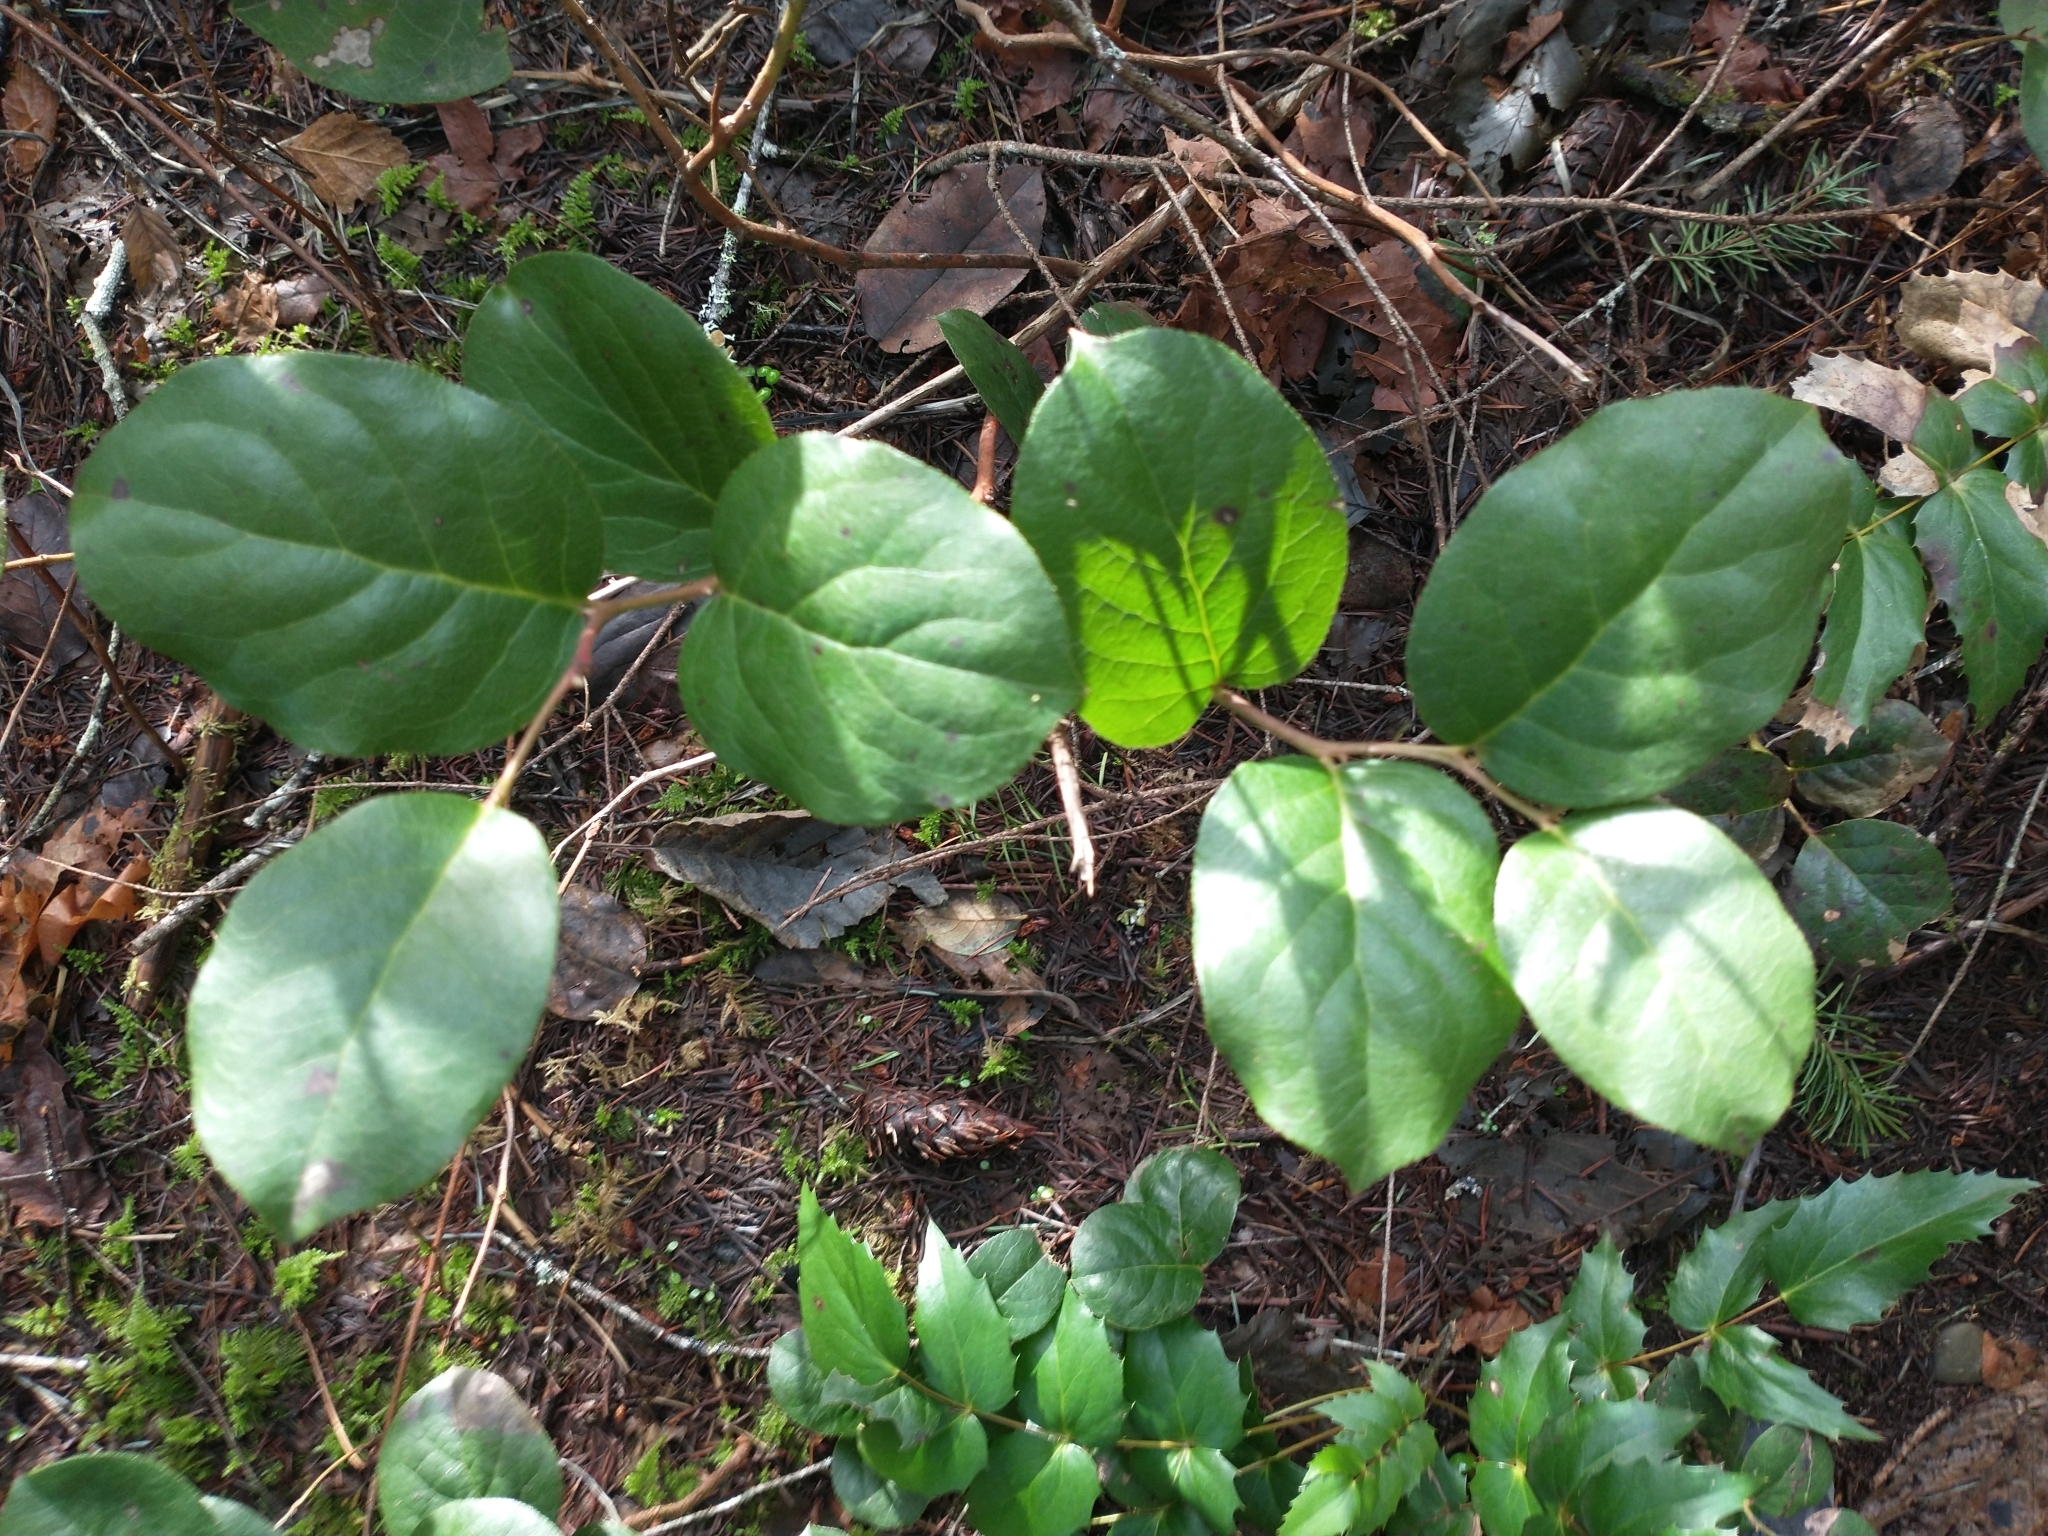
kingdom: Plantae
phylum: Tracheophyta
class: Magnoliopsida
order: Ericales
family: Ericaceae
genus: Gaultheria
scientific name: Gaultheria shallon
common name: Shallon
